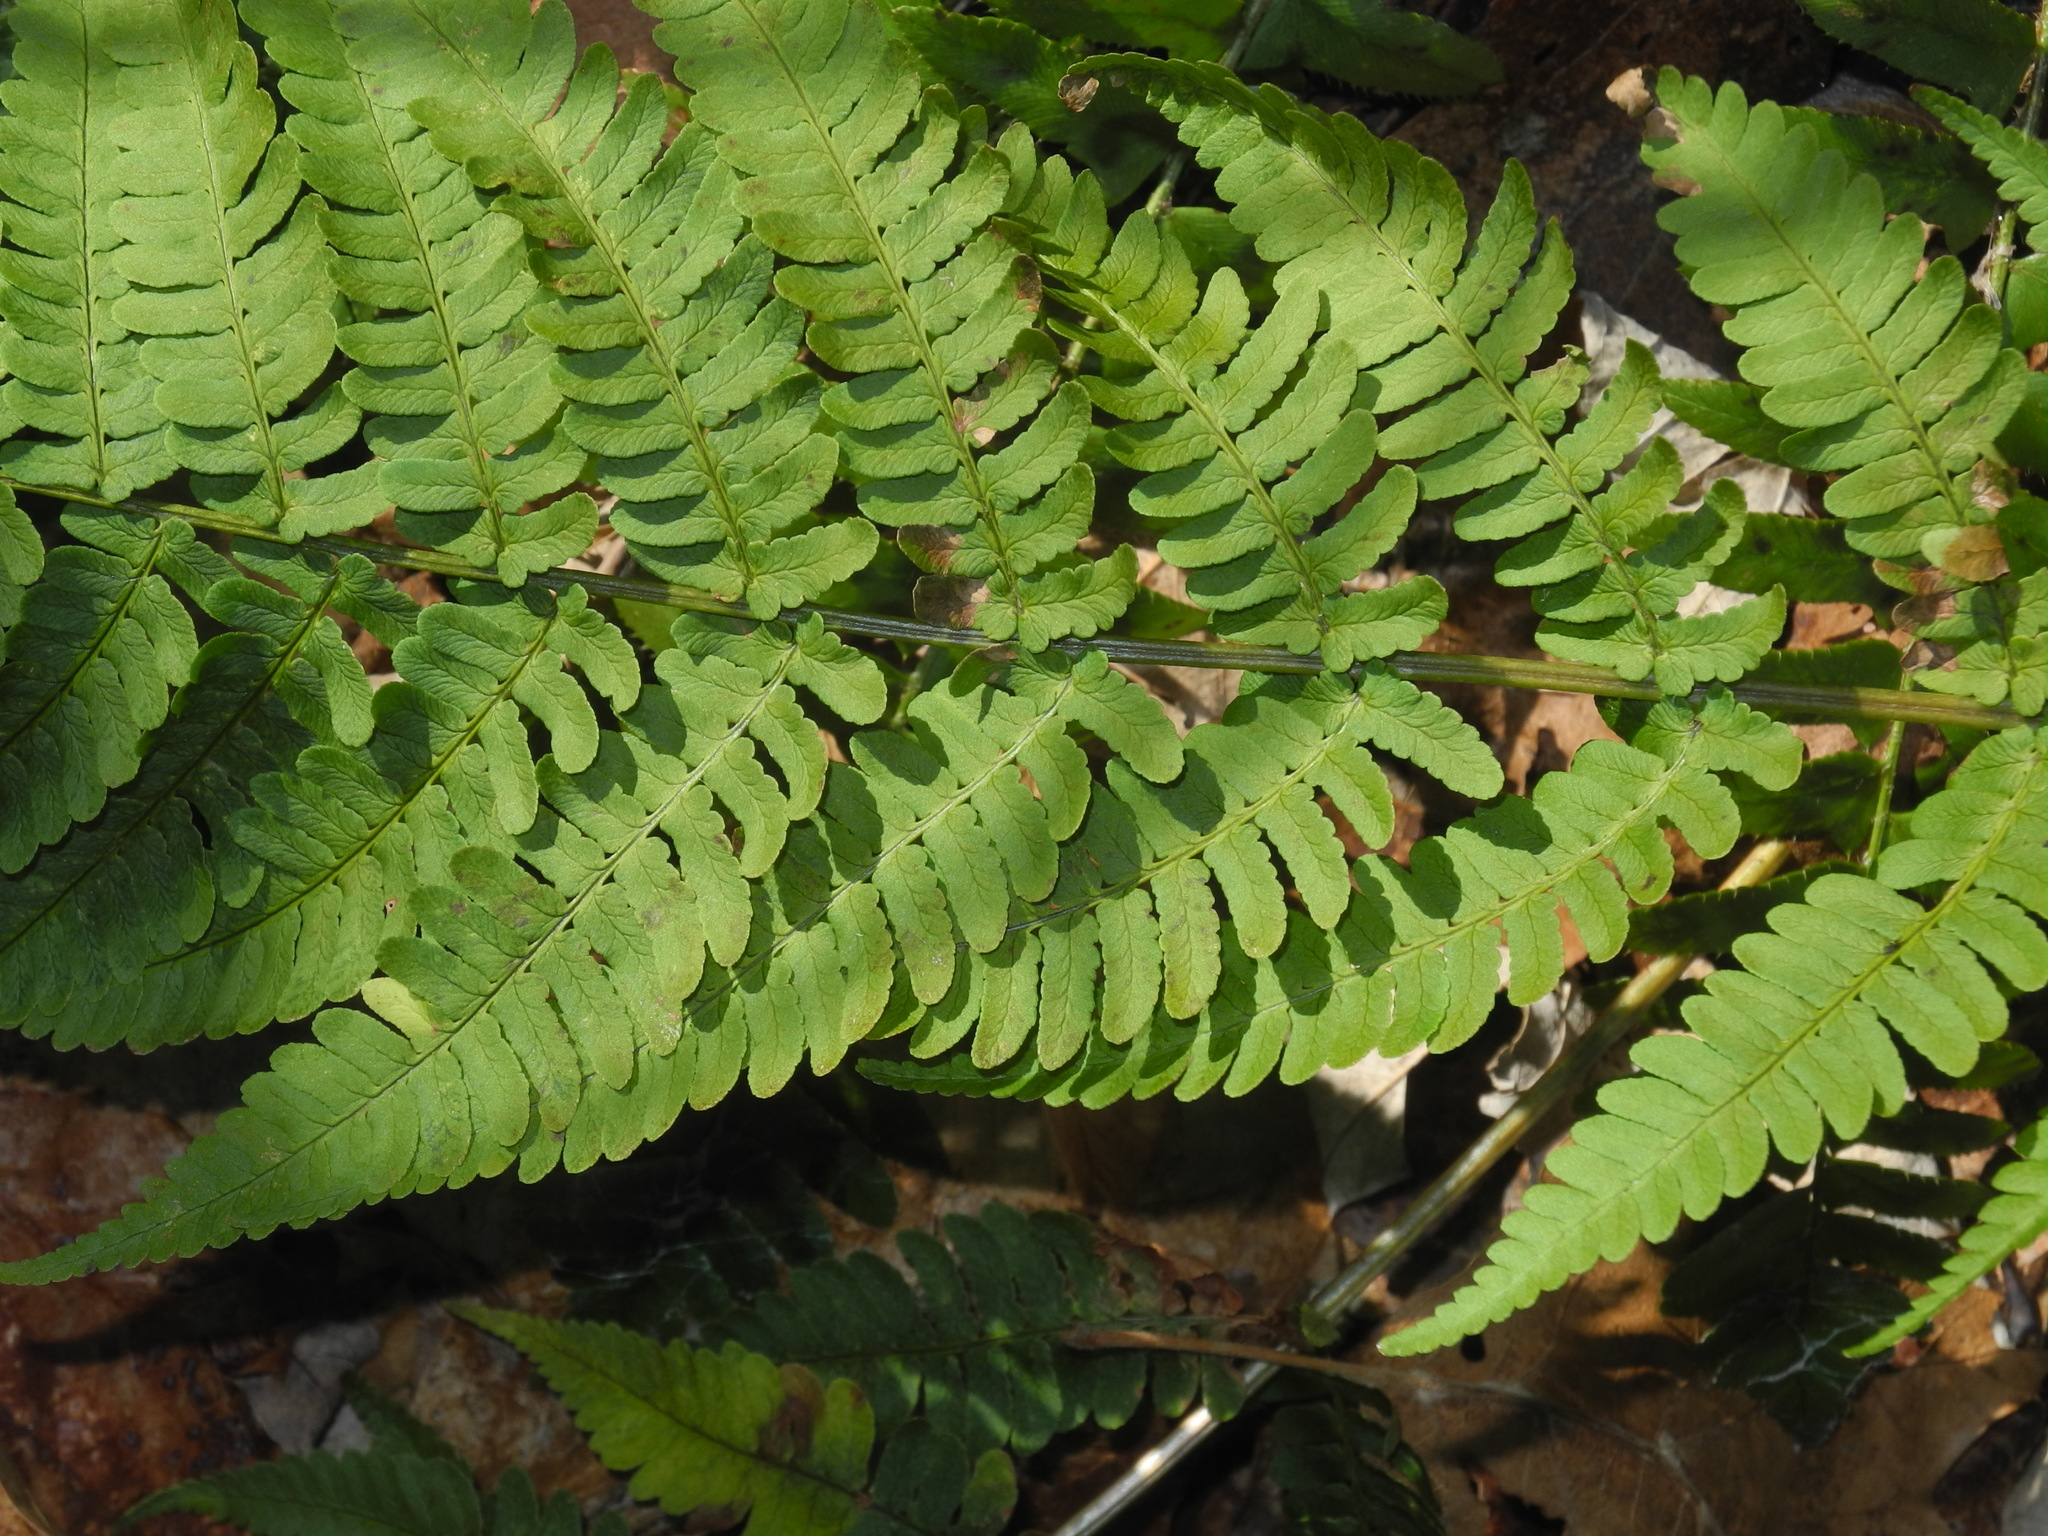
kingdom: Plantae
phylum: Tracheophyta
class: Polypodiopsida
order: Polypodiales
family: Dryopteridaceae
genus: Dryopteris
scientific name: Dryopteris marginalis
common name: Marginal wood fern
